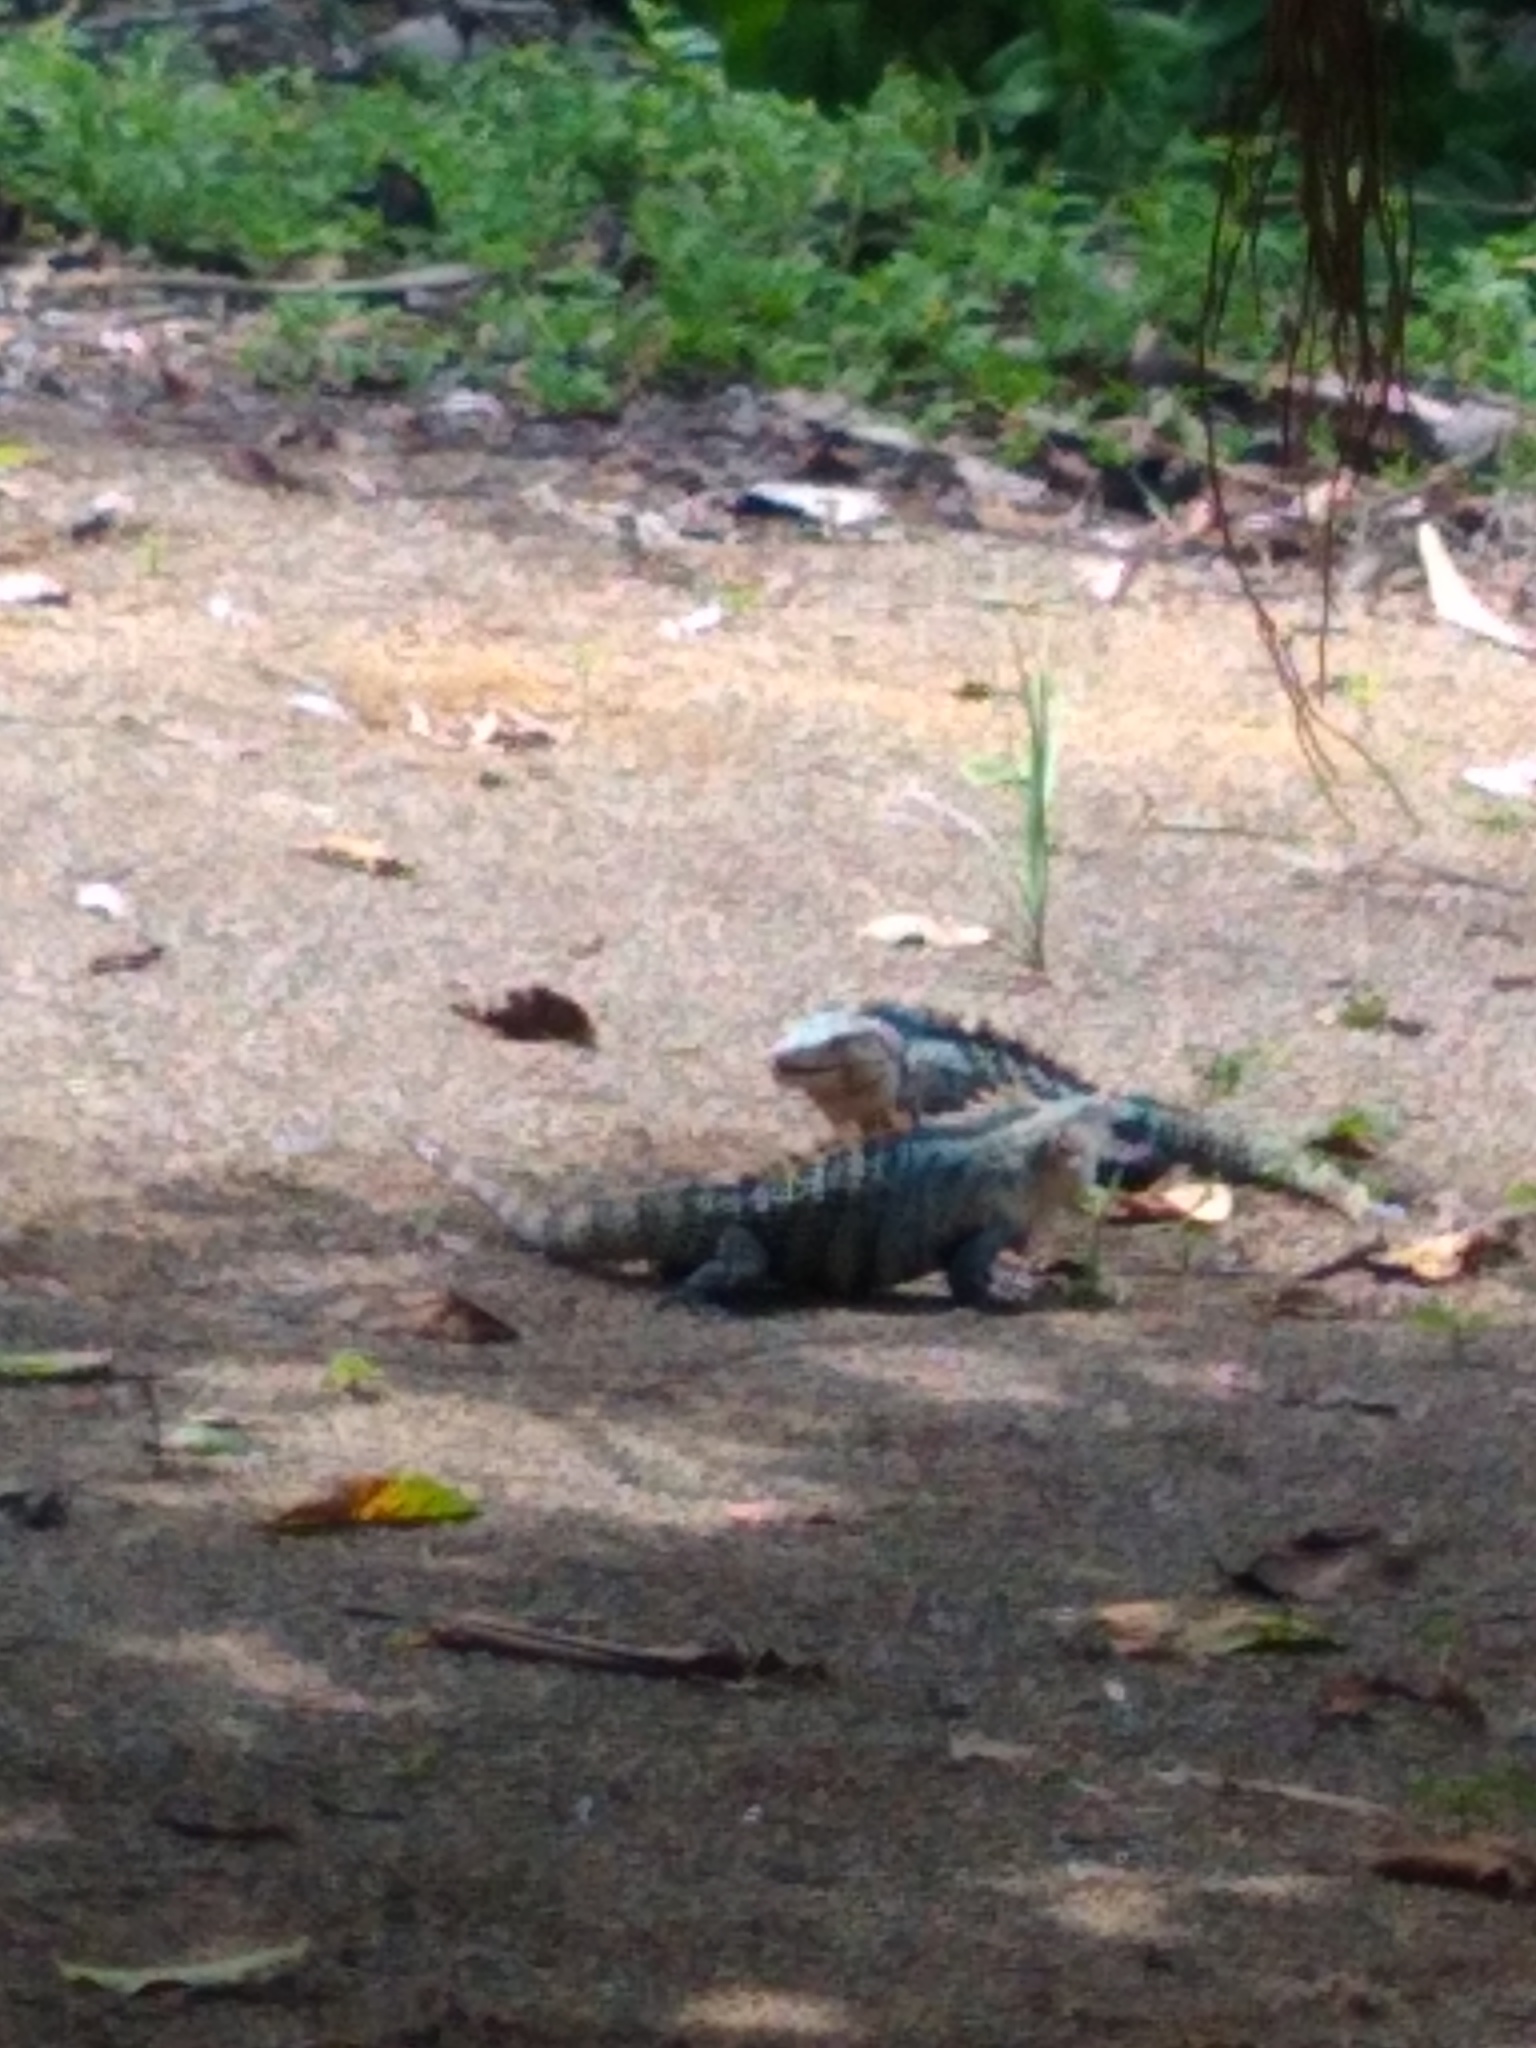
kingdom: Animalia
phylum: Chordata
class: Squamata
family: Iguanidae
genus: Ctenosaura
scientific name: Ctenosaura similis
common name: Black spiny-tailed iguana
